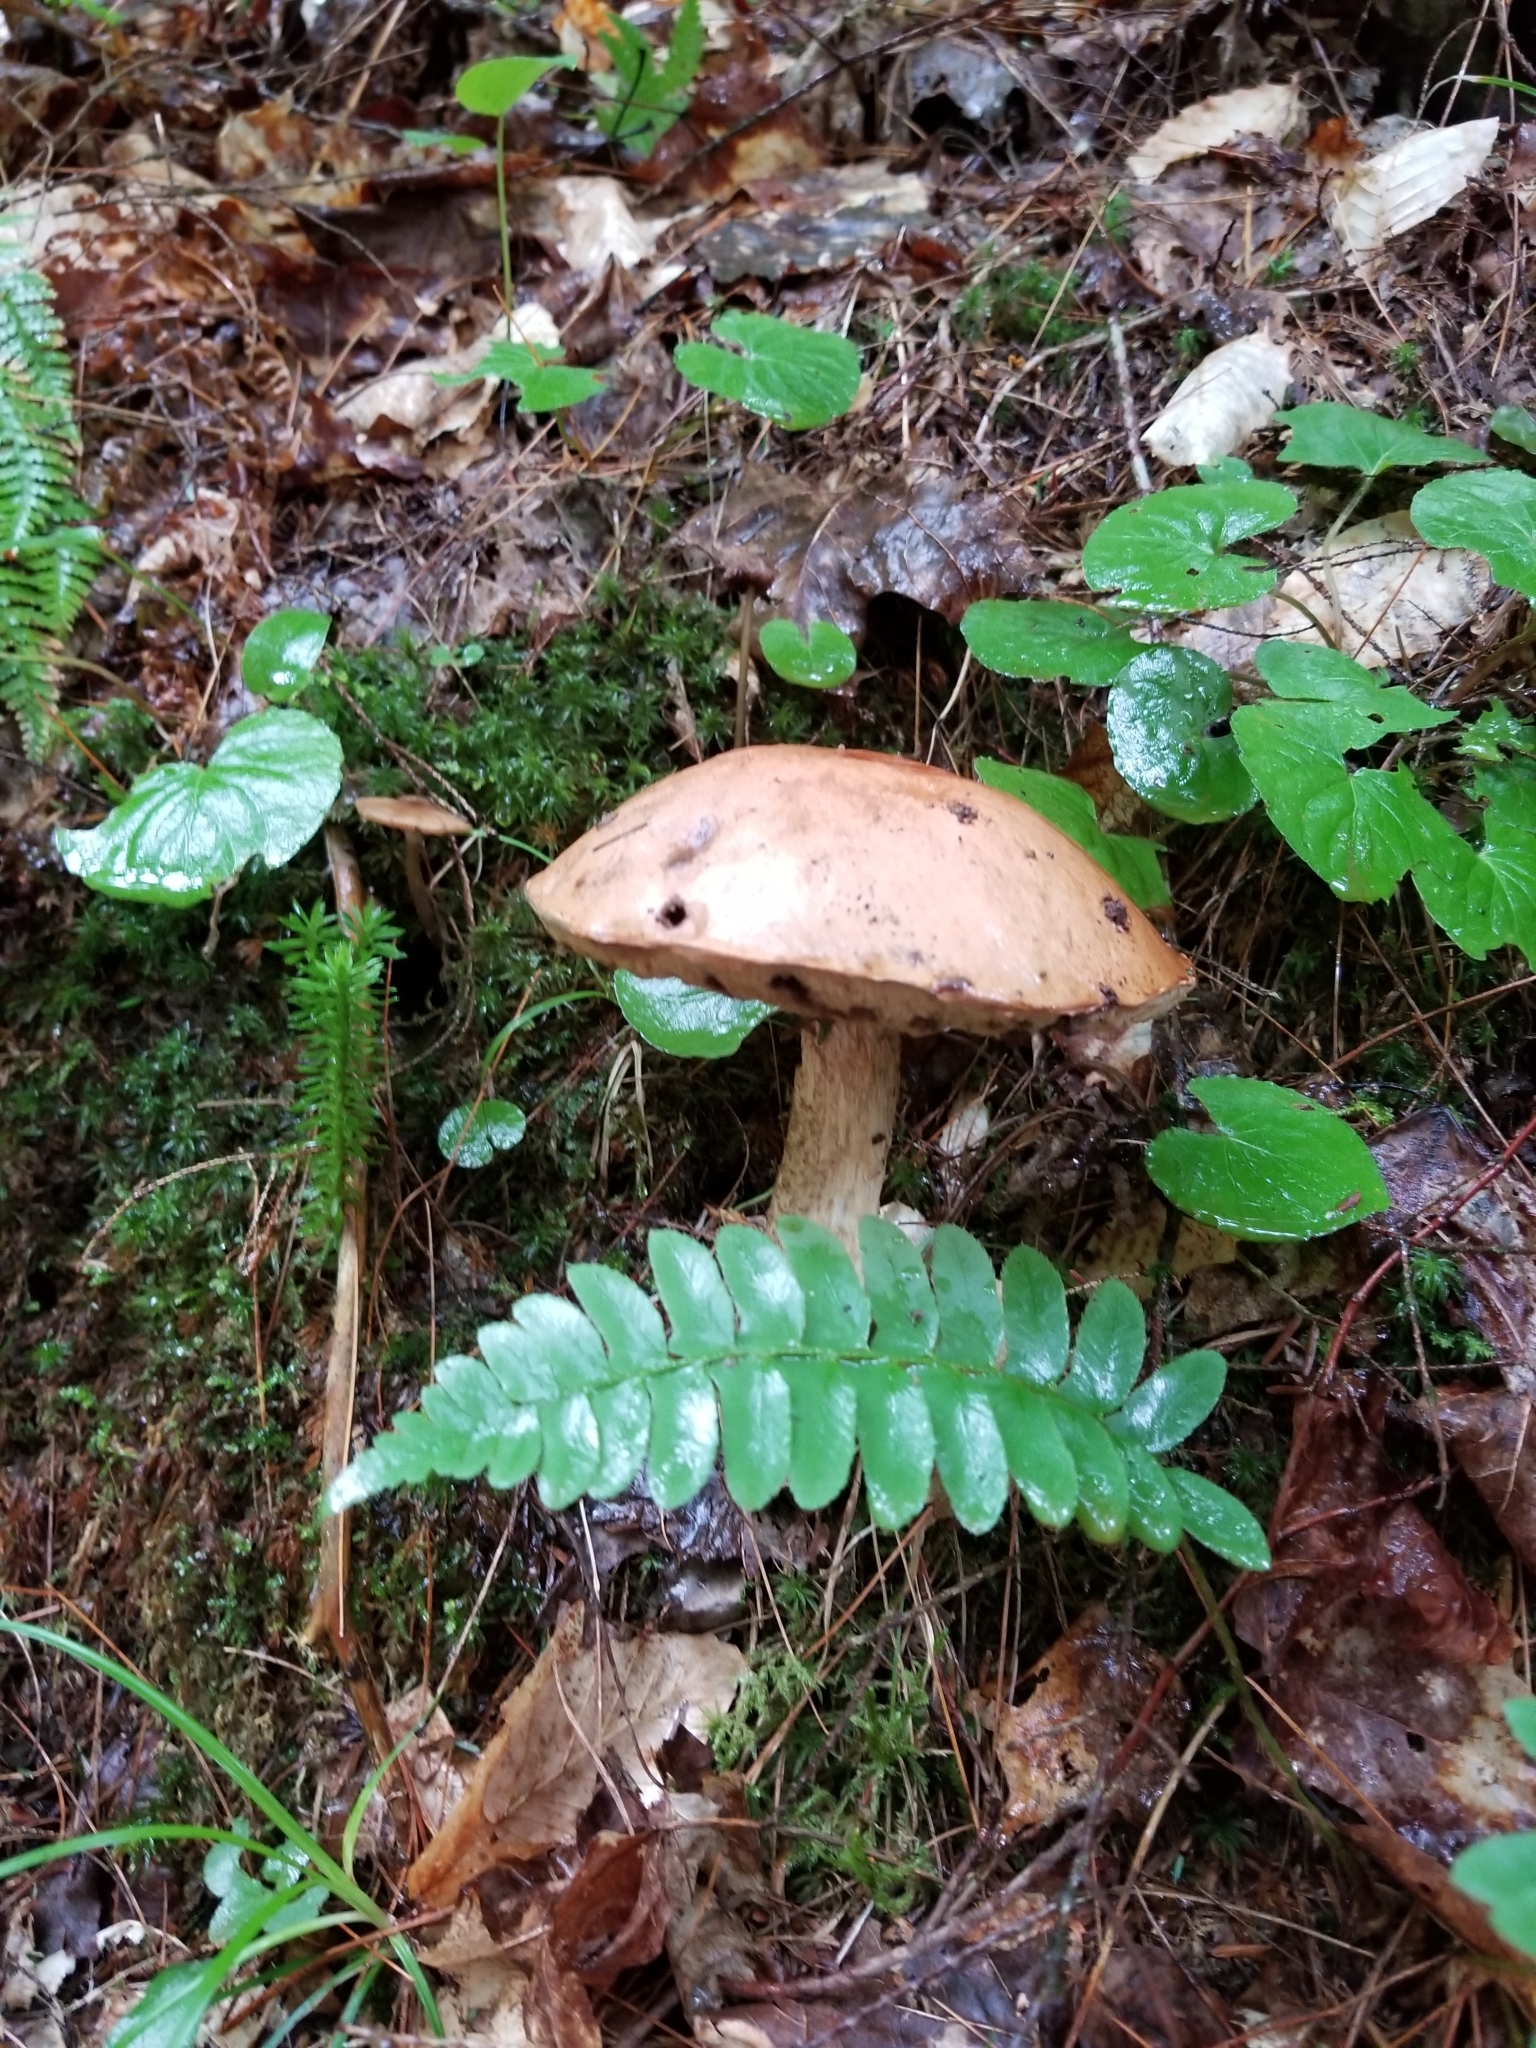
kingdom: Plantae
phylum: Tracheophyta
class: Polypodiopsida
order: Polypodiales
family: Dryopteridaceae
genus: Polystichum
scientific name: Polystichum acrostichoides
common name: Christmas fern
